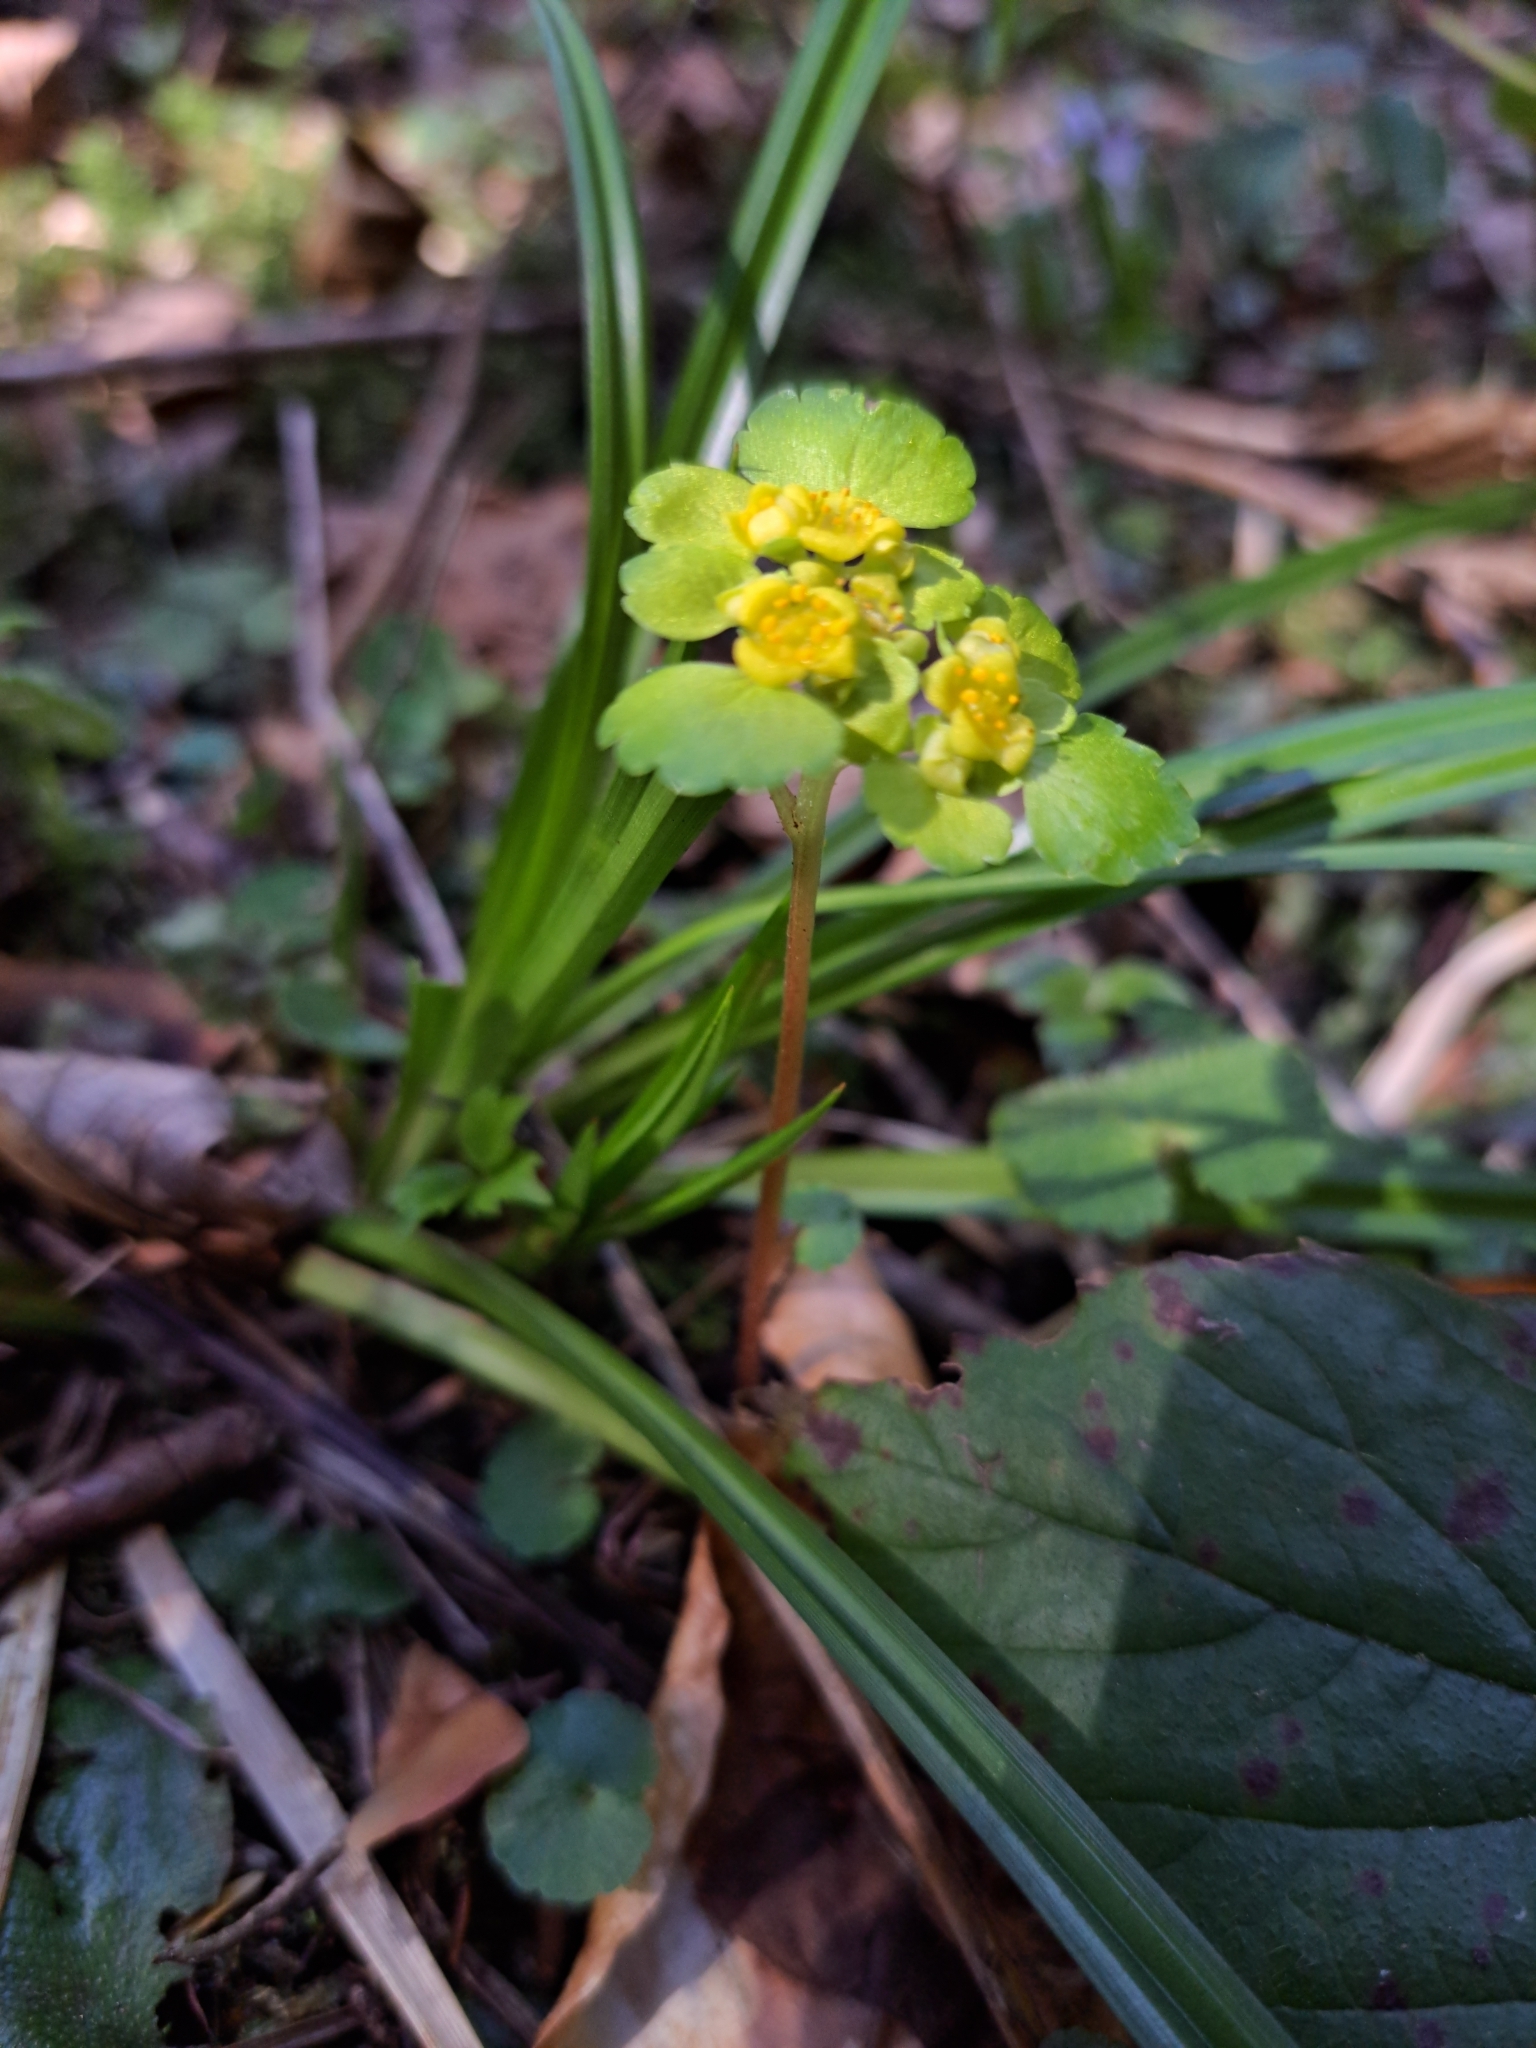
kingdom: Plantae
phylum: Tracheophyta
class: Magnoliopsida
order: Saxifragales
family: Saxifragaceae
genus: Chrysosplenium
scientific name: Chrysosplenium alternifolium
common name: Alternate-leaved golden-saxifrage
